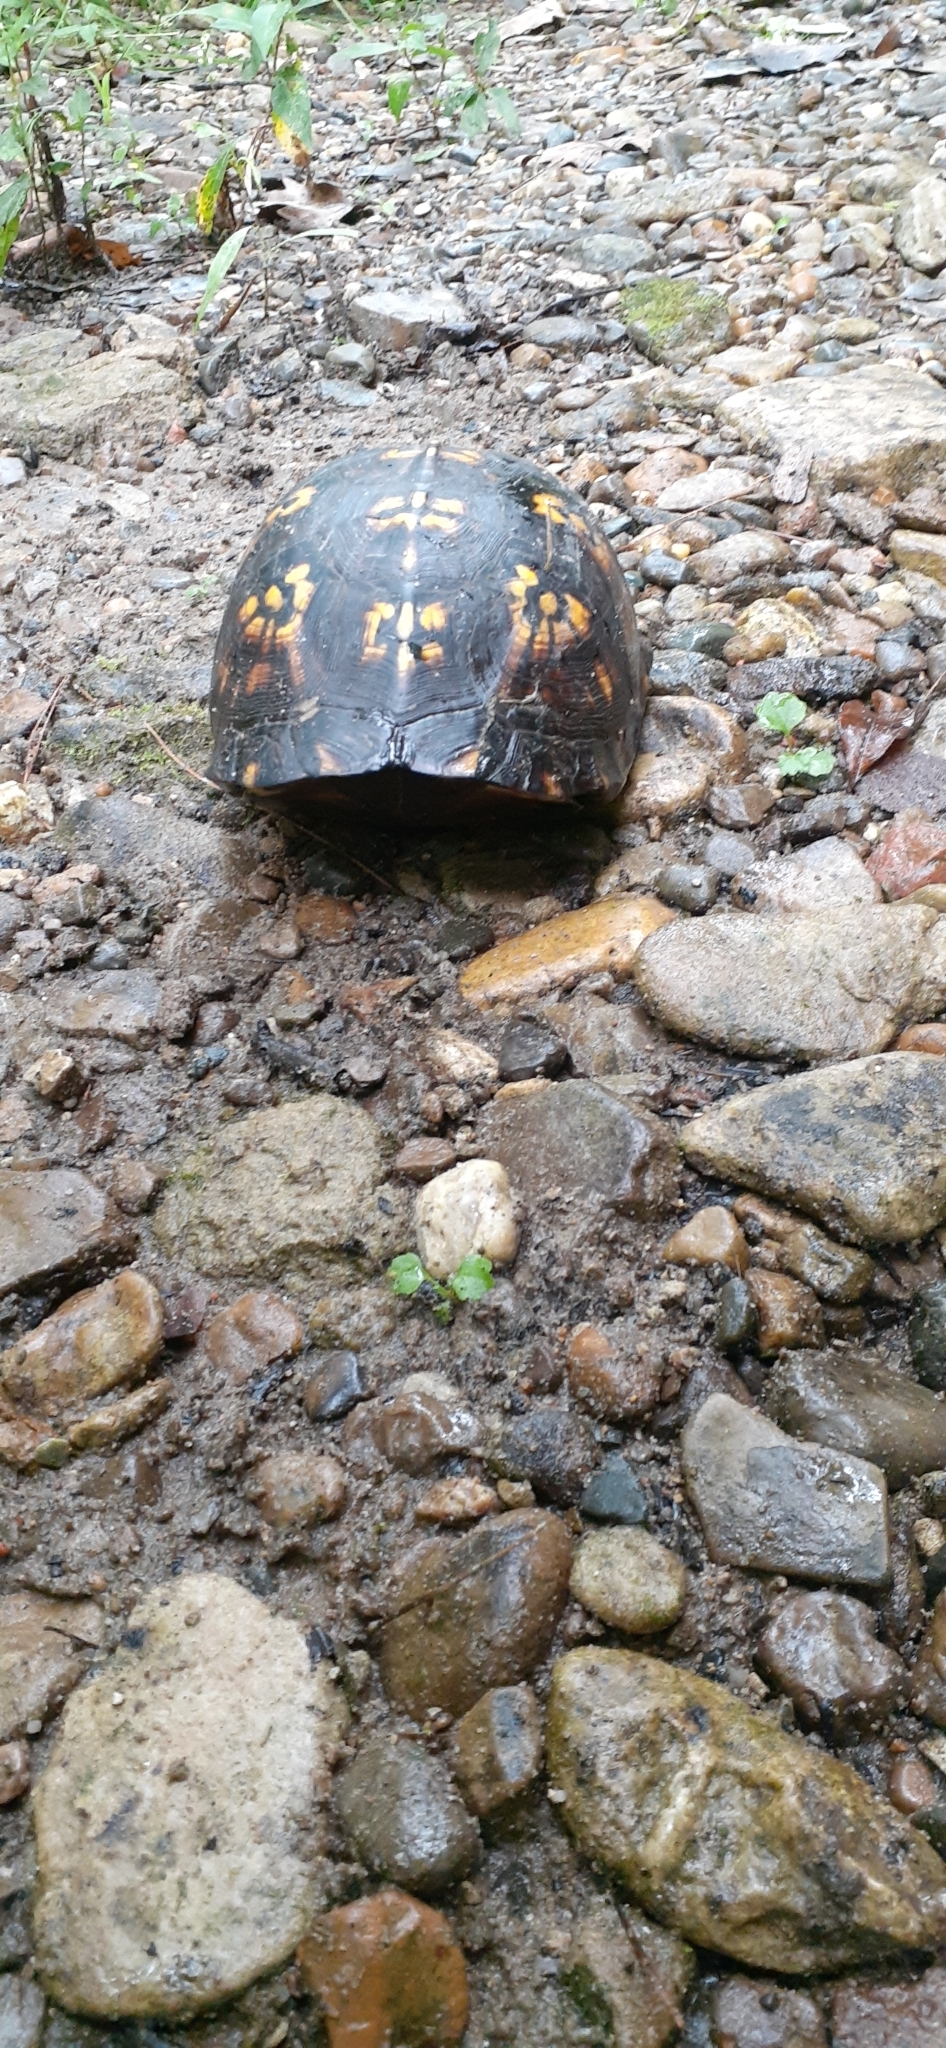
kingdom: Animalia
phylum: Chordata
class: Testudines
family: Emydidae
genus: Terrapene
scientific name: Terrapene carolina
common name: Common box turtle
